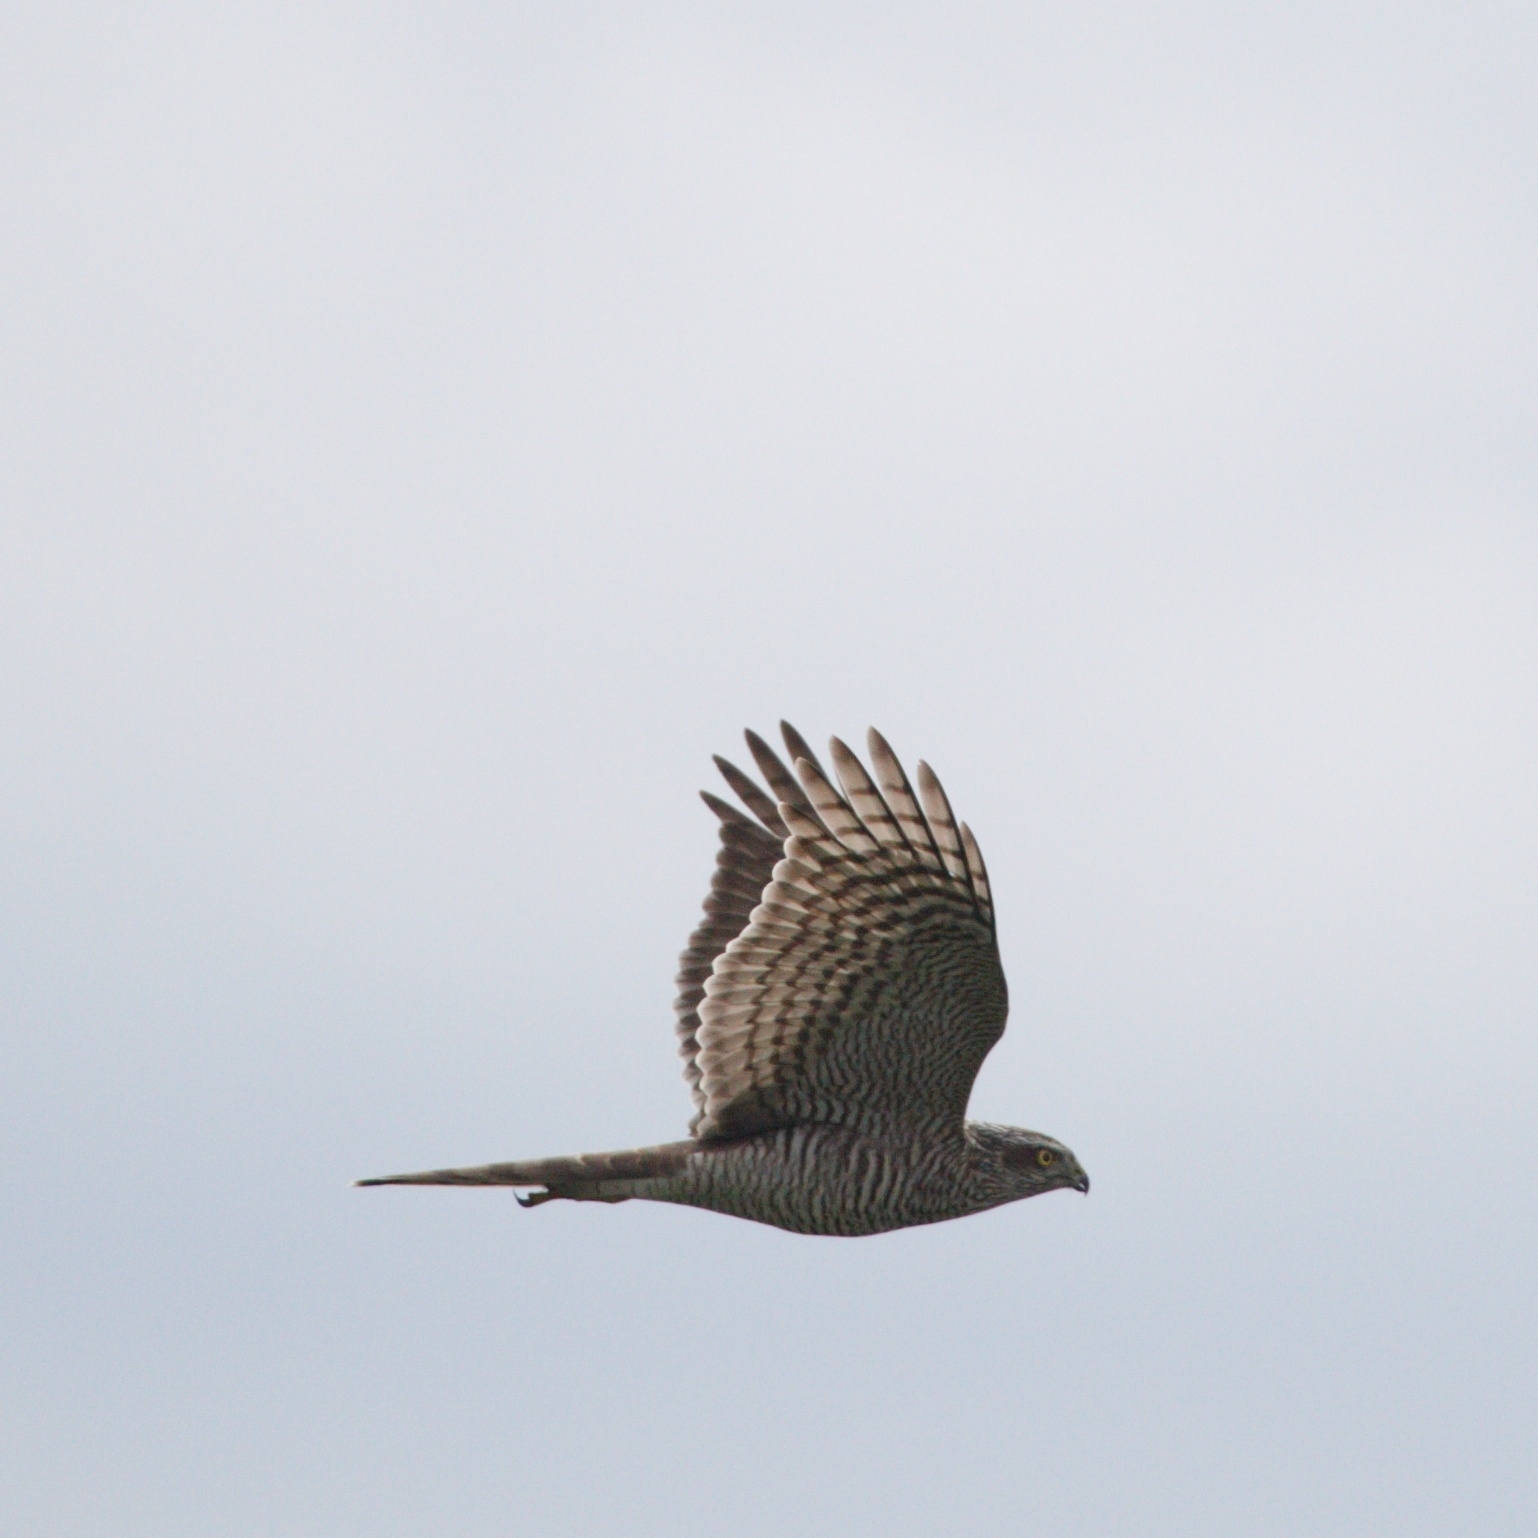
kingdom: Animalia
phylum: Chordata
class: Aves
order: Accipitriformes
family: Accipitridae
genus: Accipiter
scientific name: Accipiter nisus
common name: Eurasian sparrowhawk
